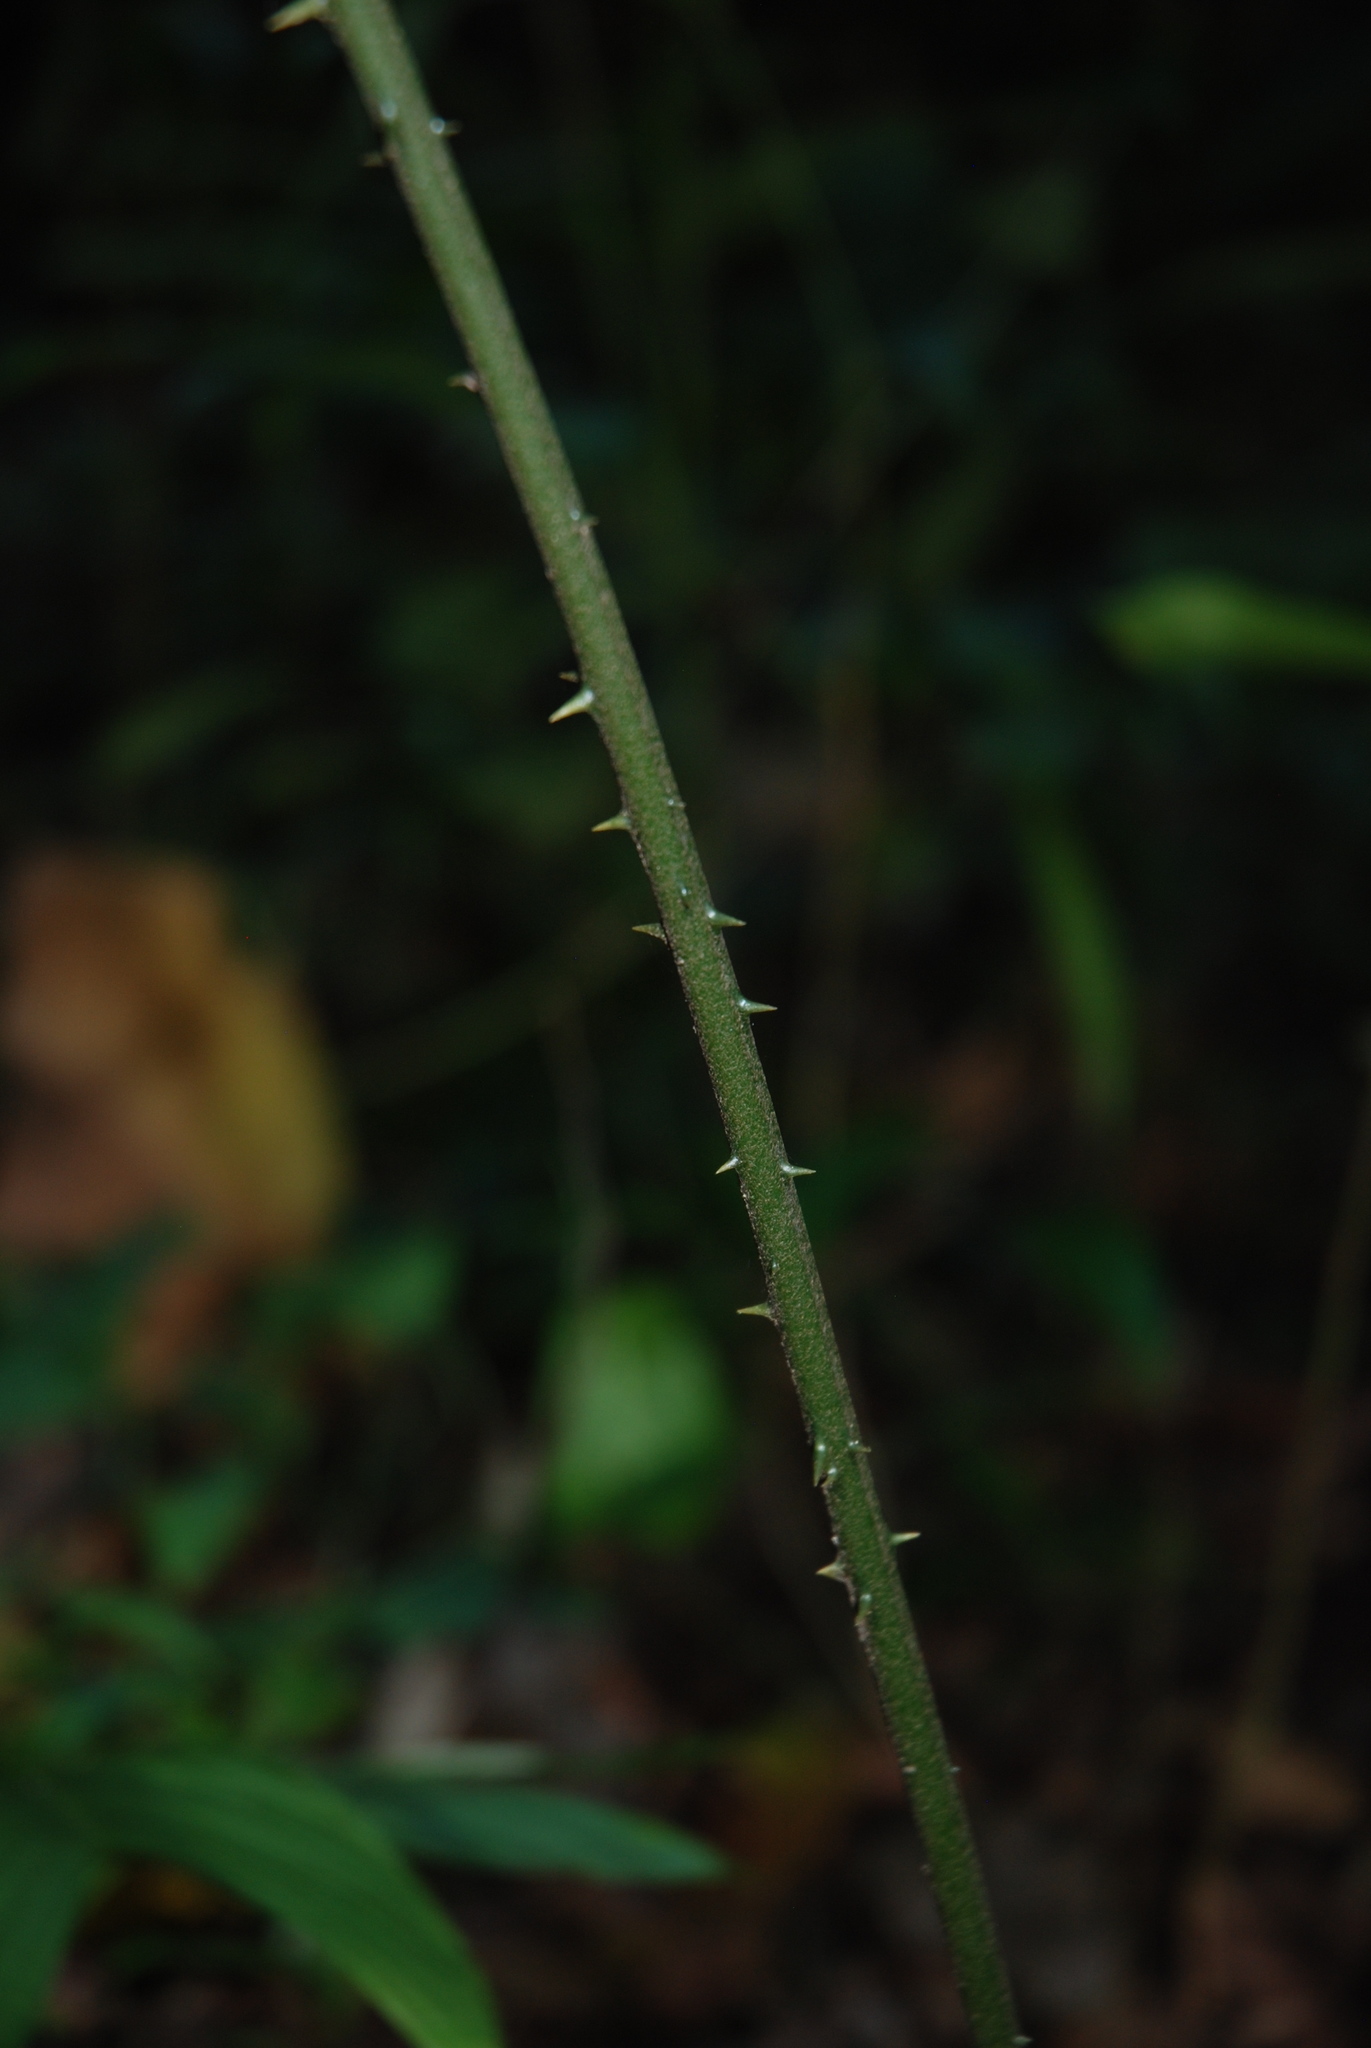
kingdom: Plantae
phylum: Tracheophyta
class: Cycadopsida
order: Cycadales
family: Zamiaceae
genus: Zamia
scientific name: Zamia neurophyllidia
